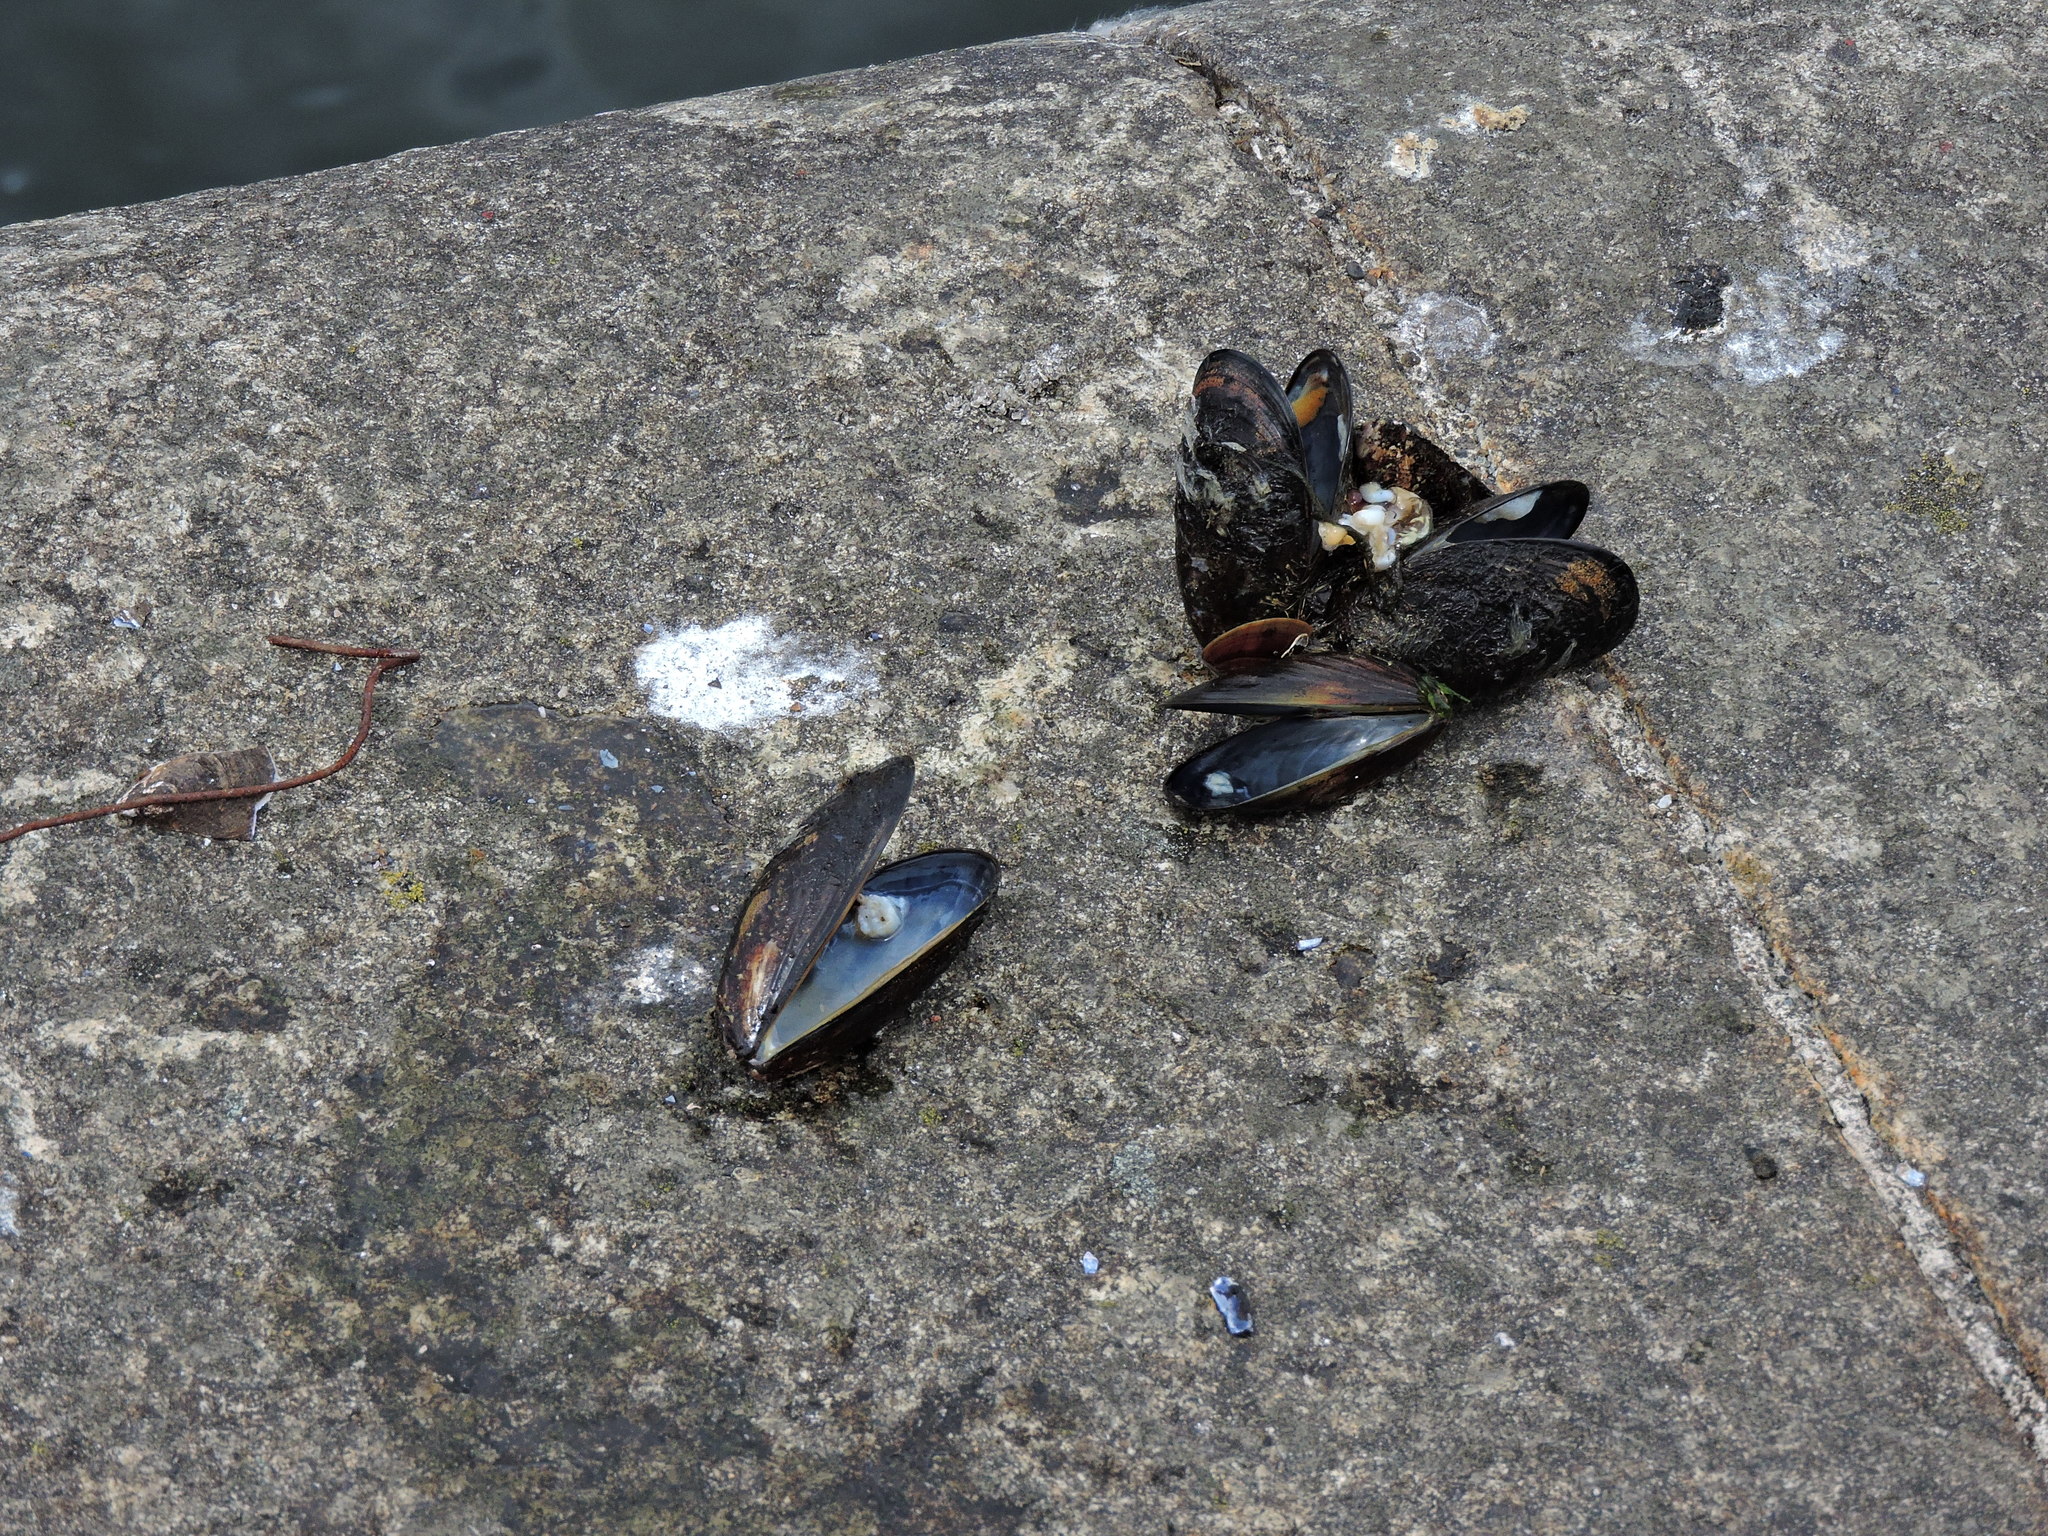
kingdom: Animalia
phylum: Mollusca
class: Bivalvia
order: Mytilida
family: Mytilidae
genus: Mytilus
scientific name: Mytilus edulis
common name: Blue mussel
